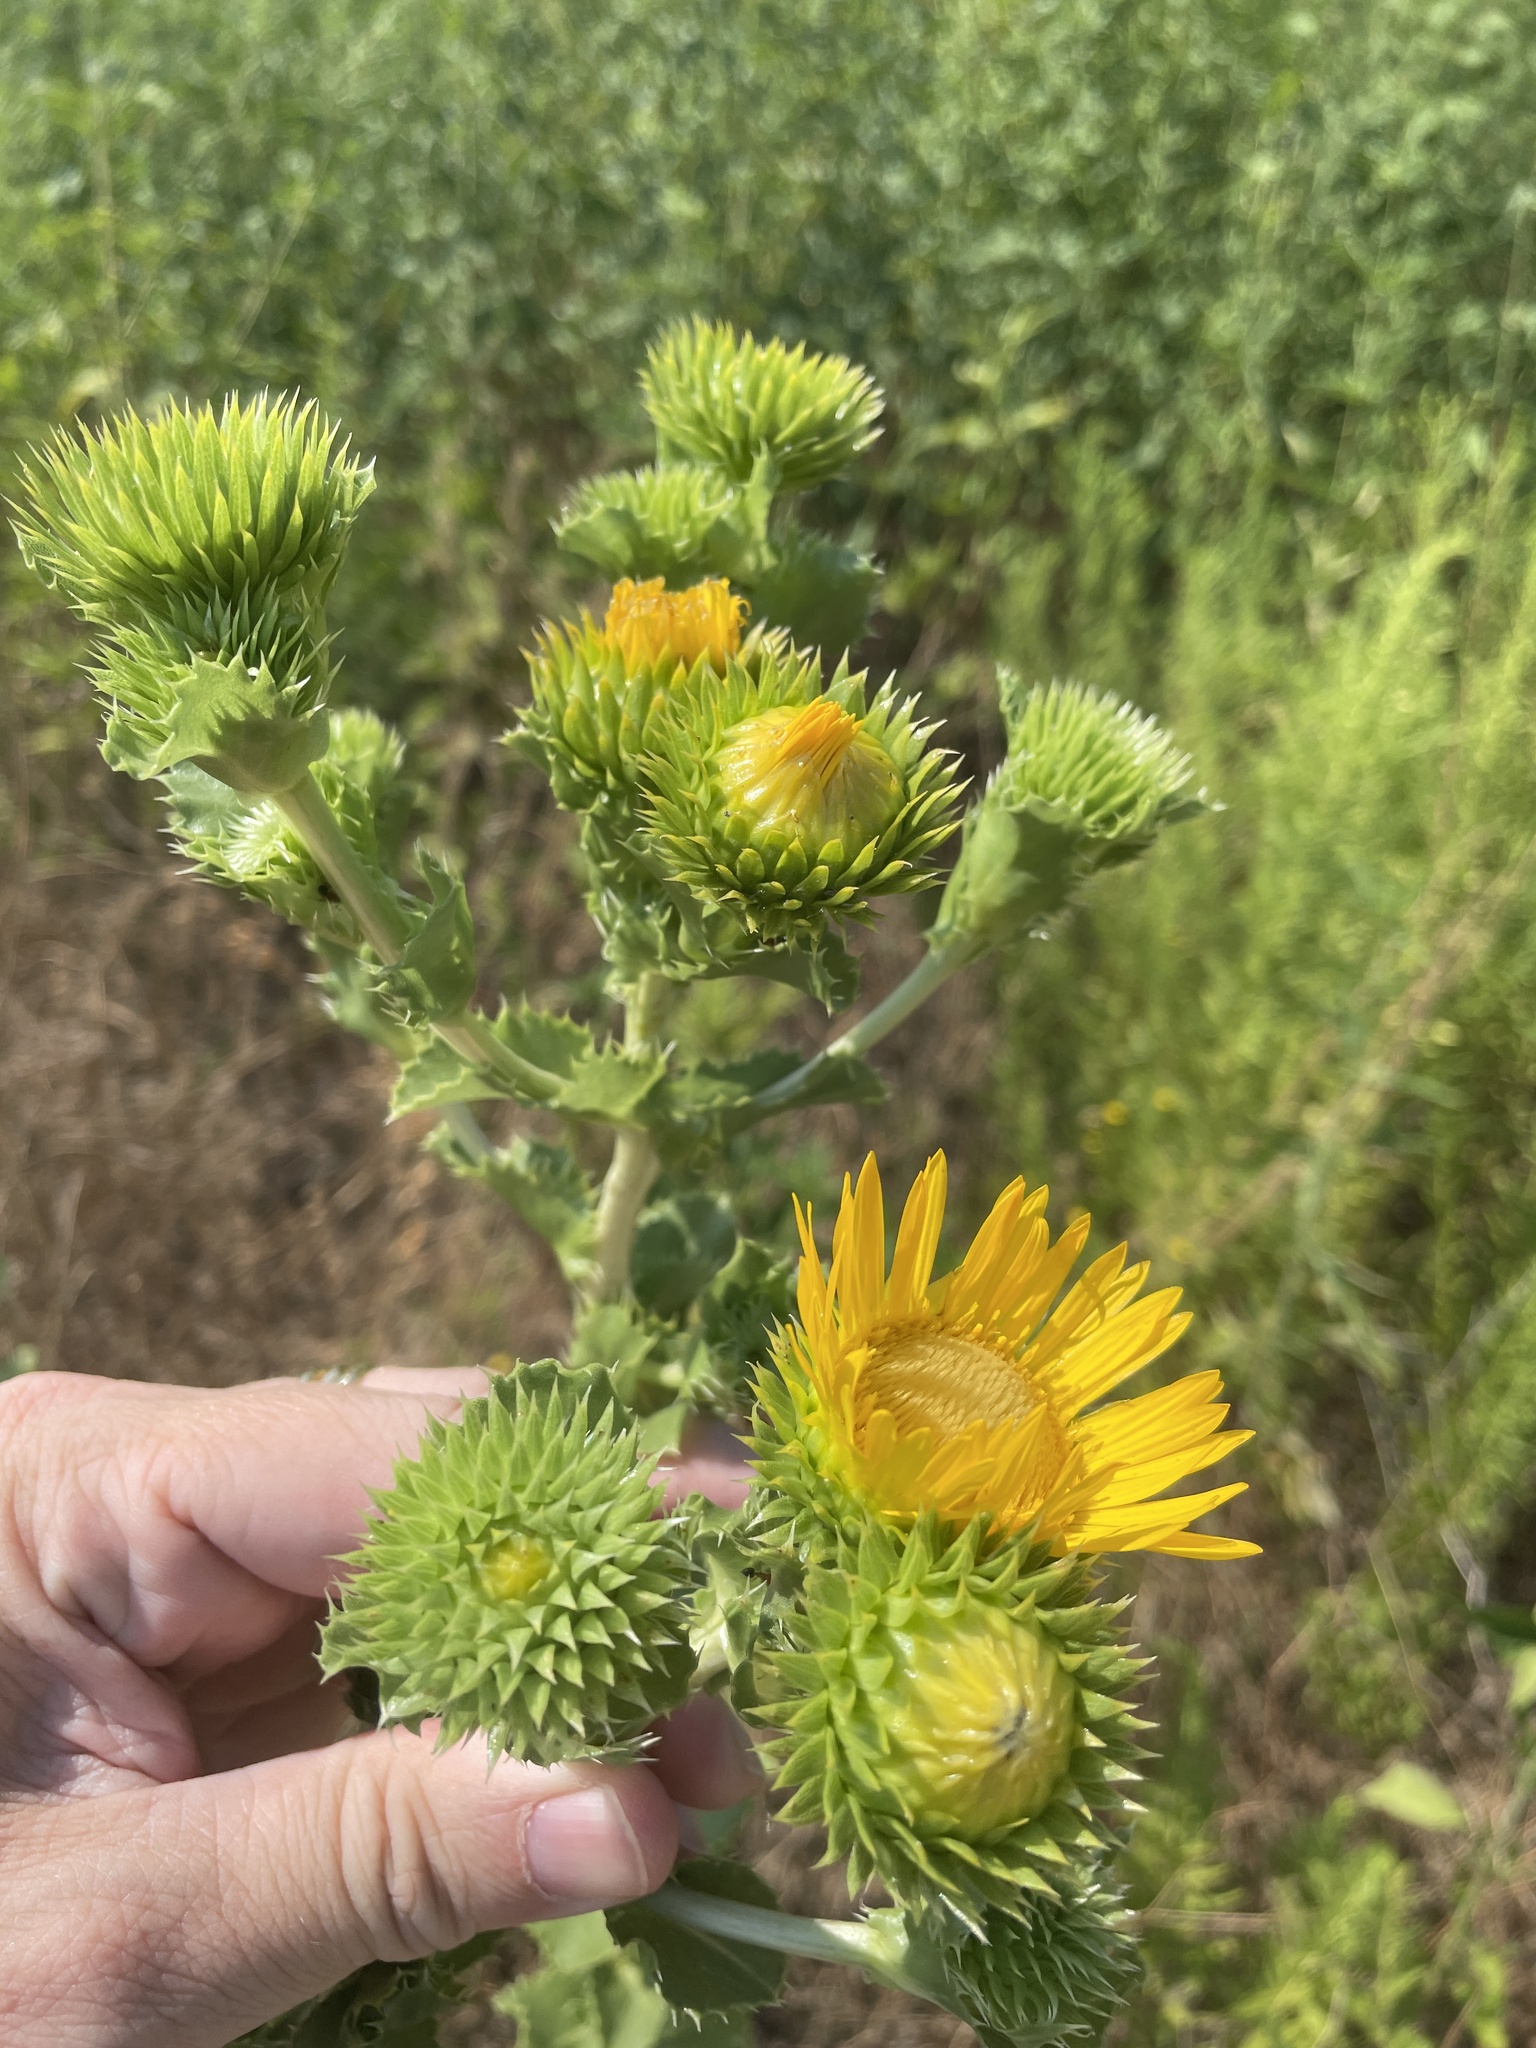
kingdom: Plantae
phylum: Tracheophyta
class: Magnoliopsida
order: Asterales
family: Asteraceae
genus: Grindelia
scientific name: Grindelia ciliata
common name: Goldenweed
